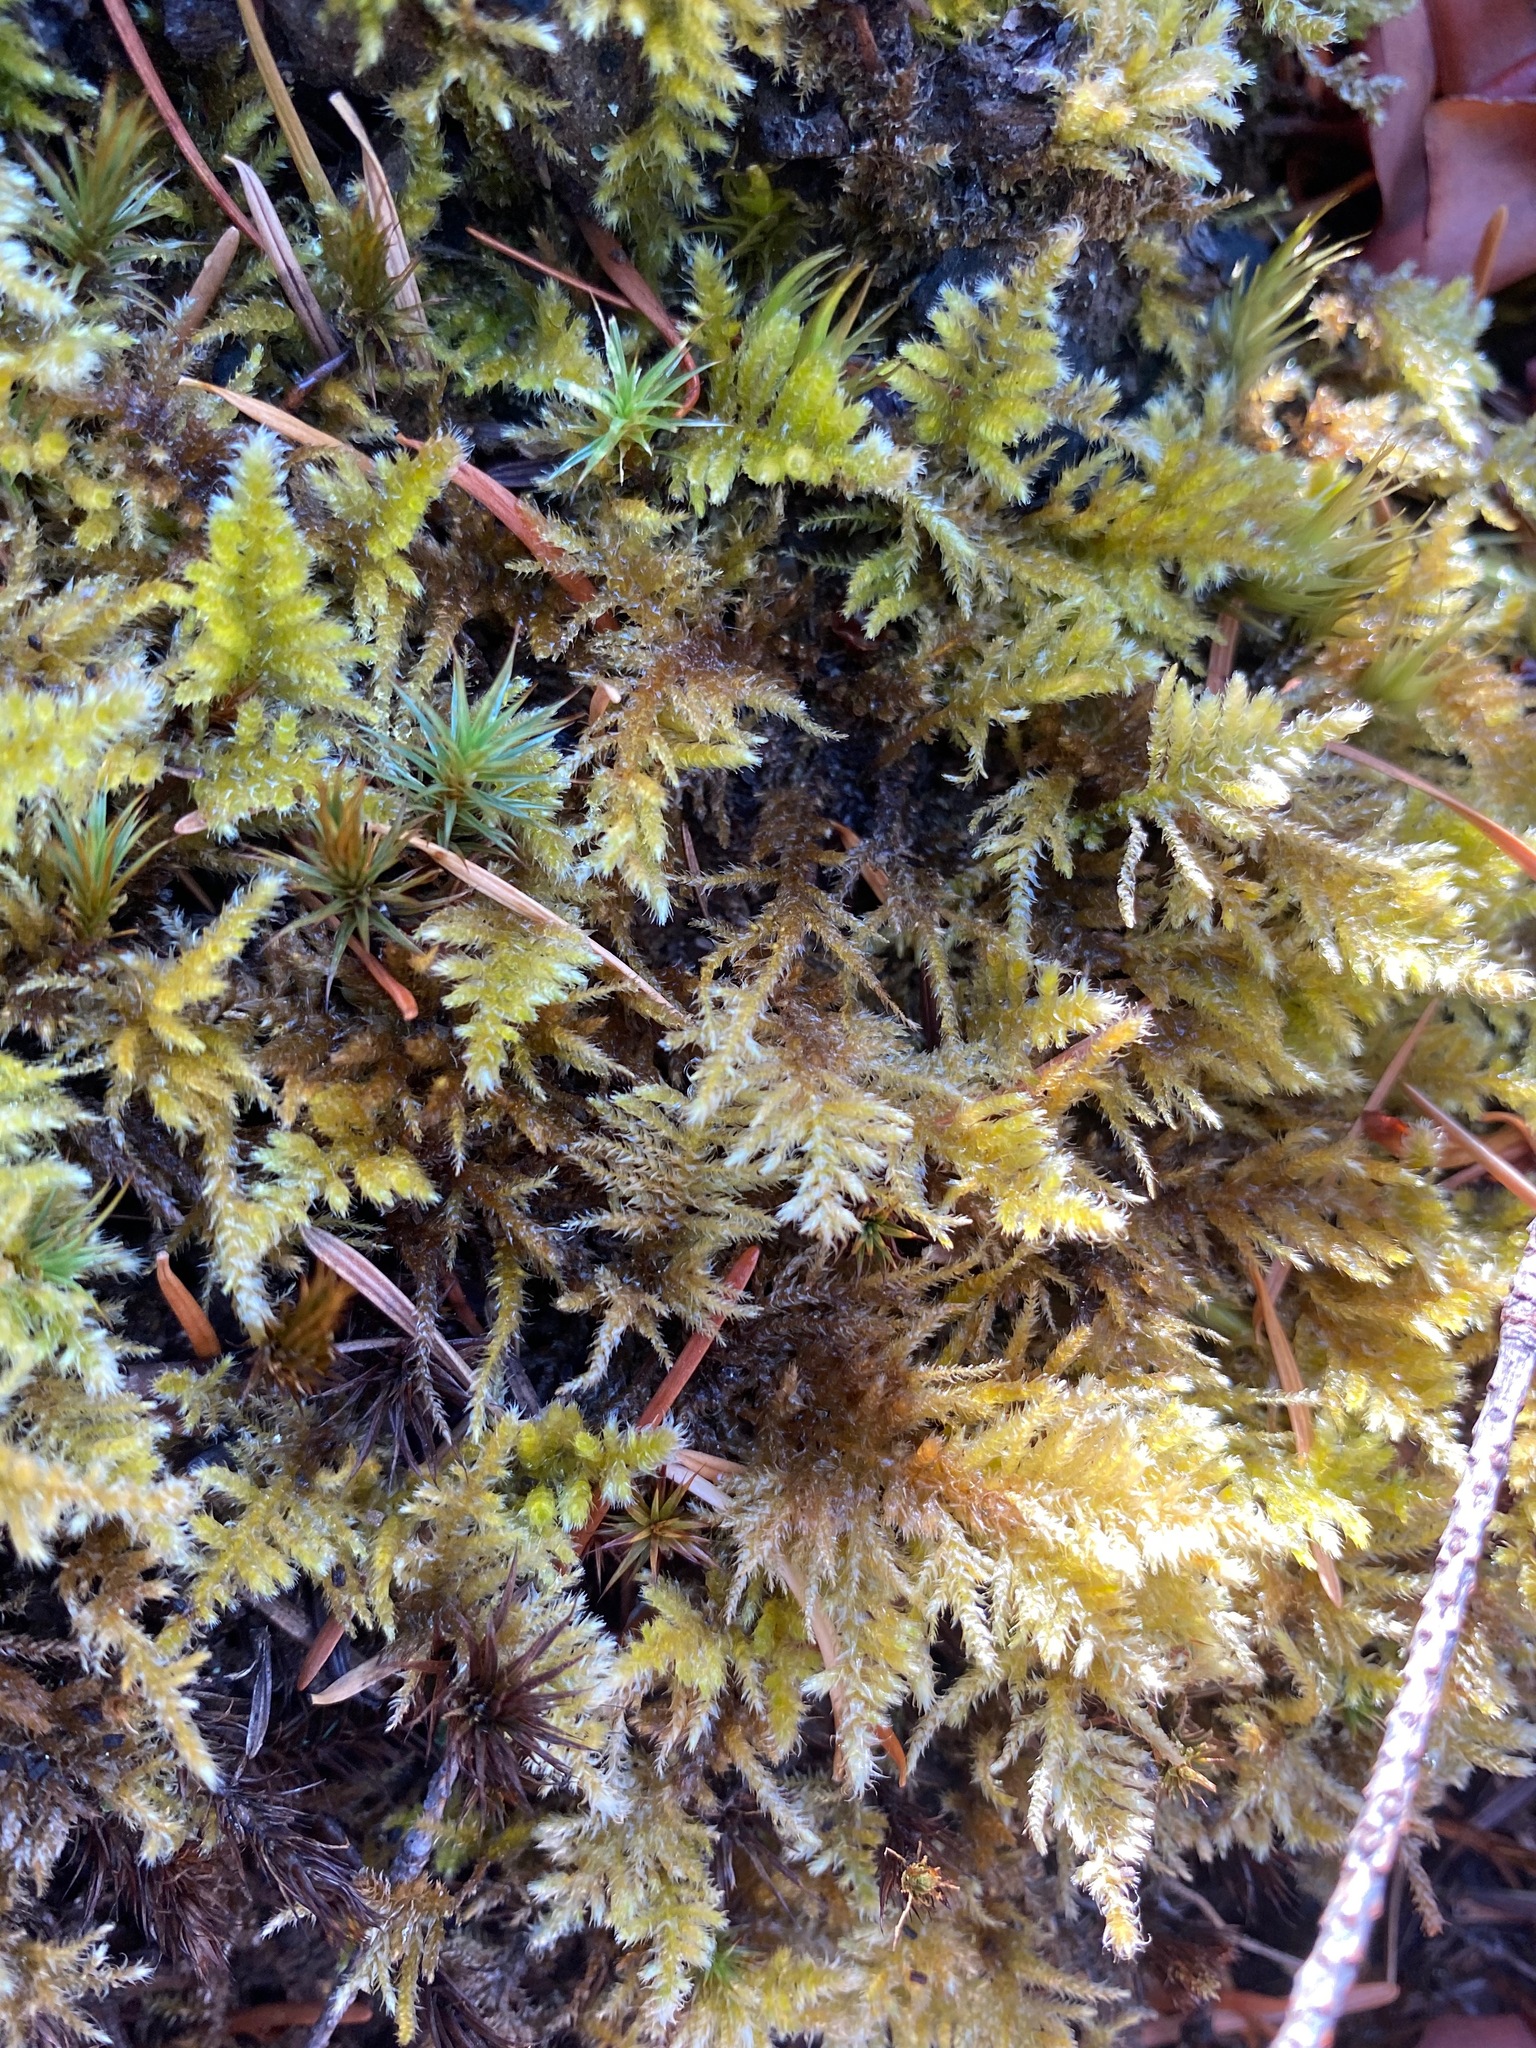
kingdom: Plantae
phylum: Bryophyta
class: Bryopsida
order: Hypnales
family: Brachytheciaceae
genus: Kindbergia
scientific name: Kindbergia oregana
